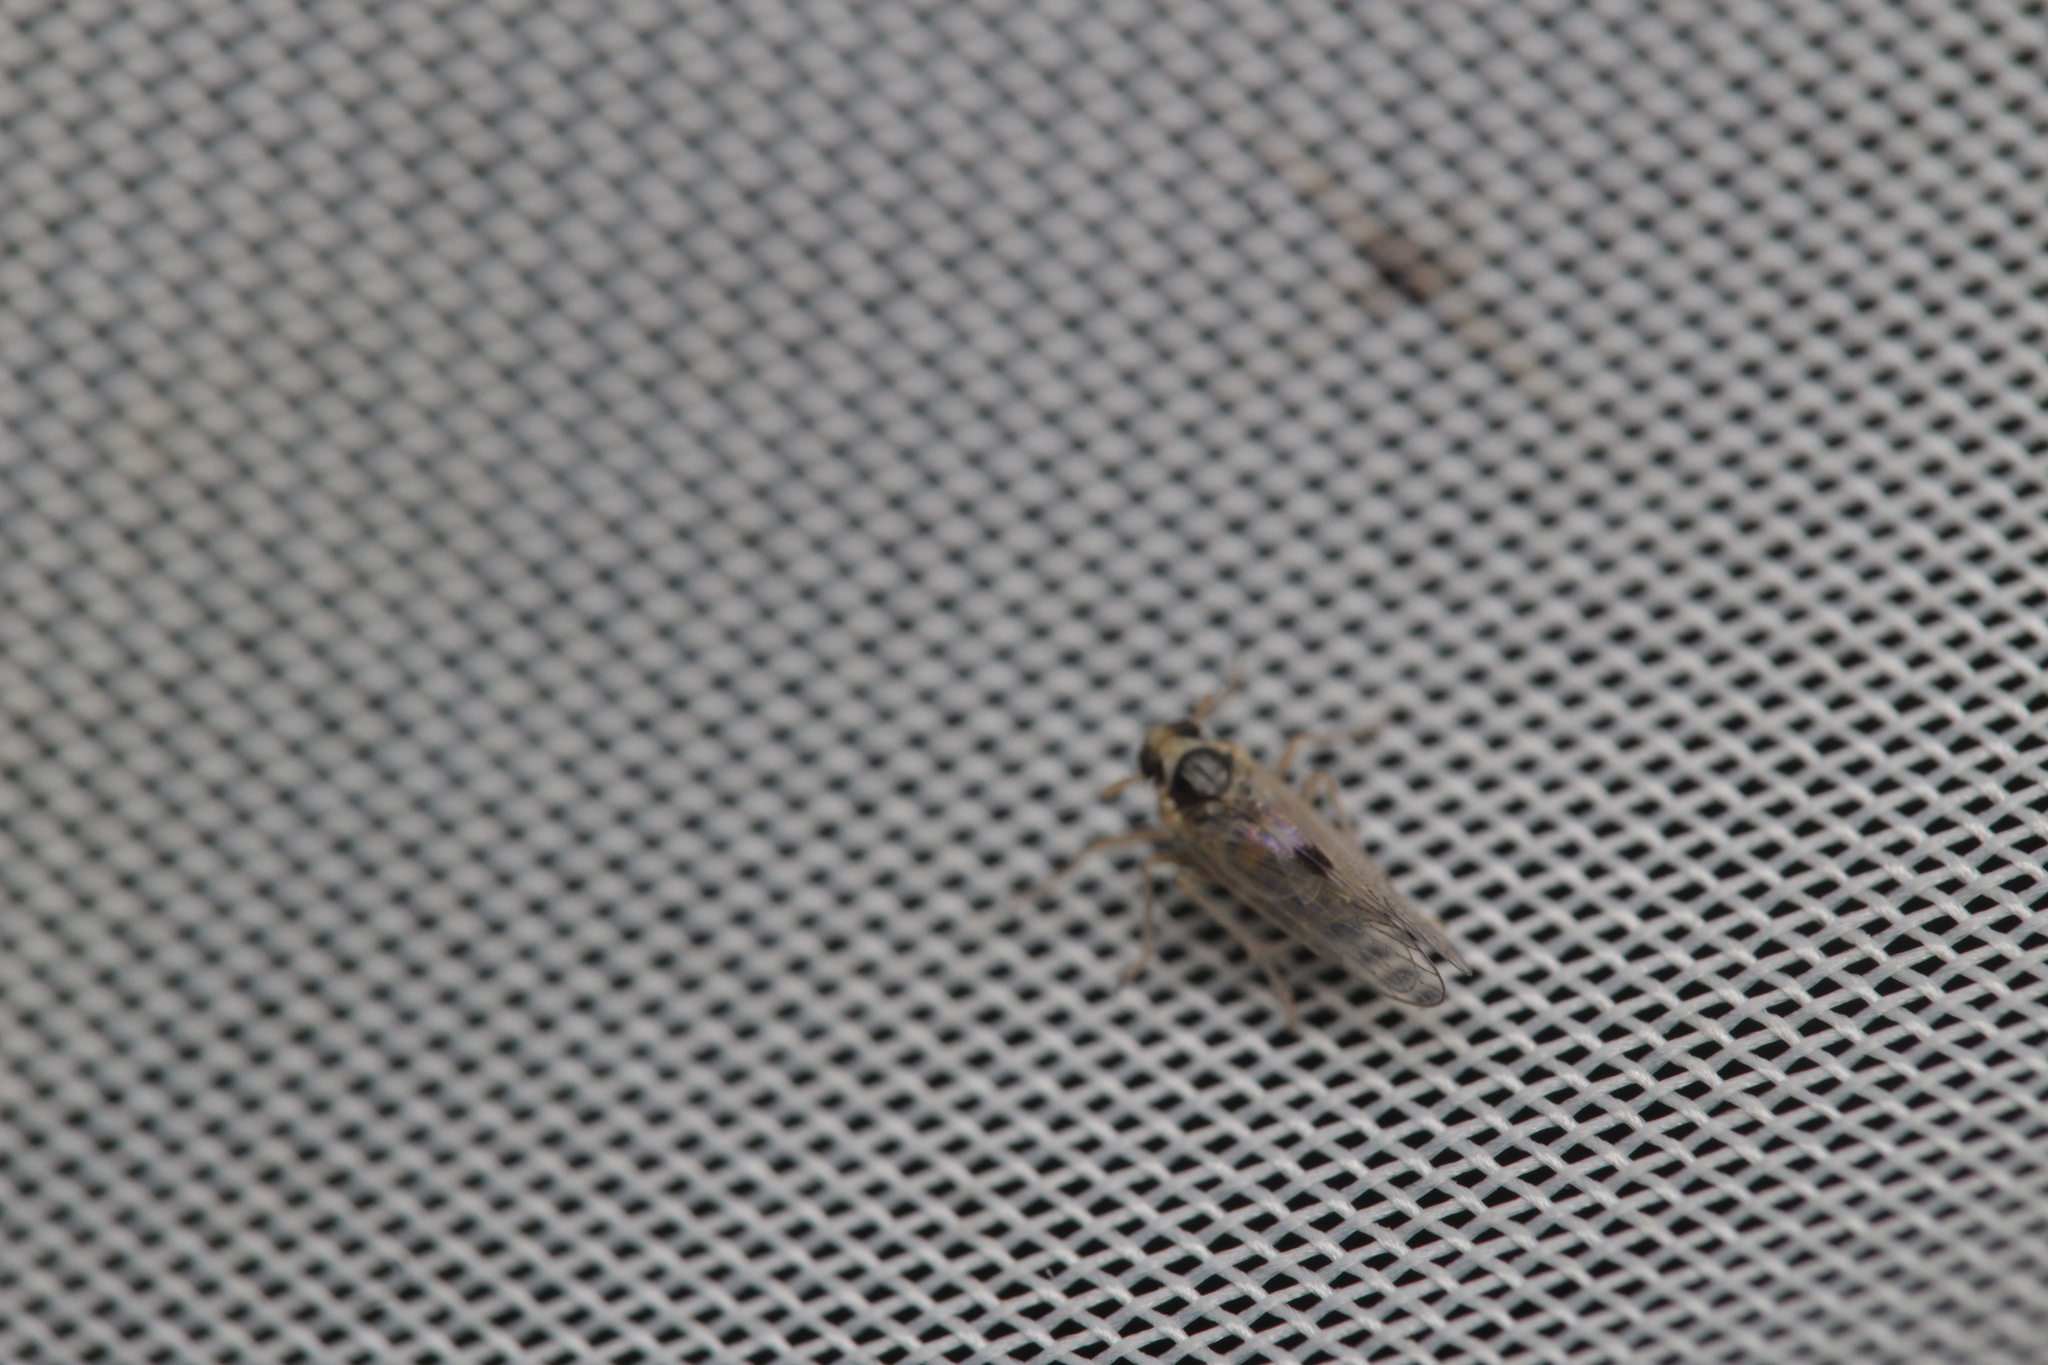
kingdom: Animalia
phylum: Arthropoda
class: Insecta
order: Hemiptera
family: Delphacidae
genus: Laodelphax
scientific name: Laodelphax striatellus
